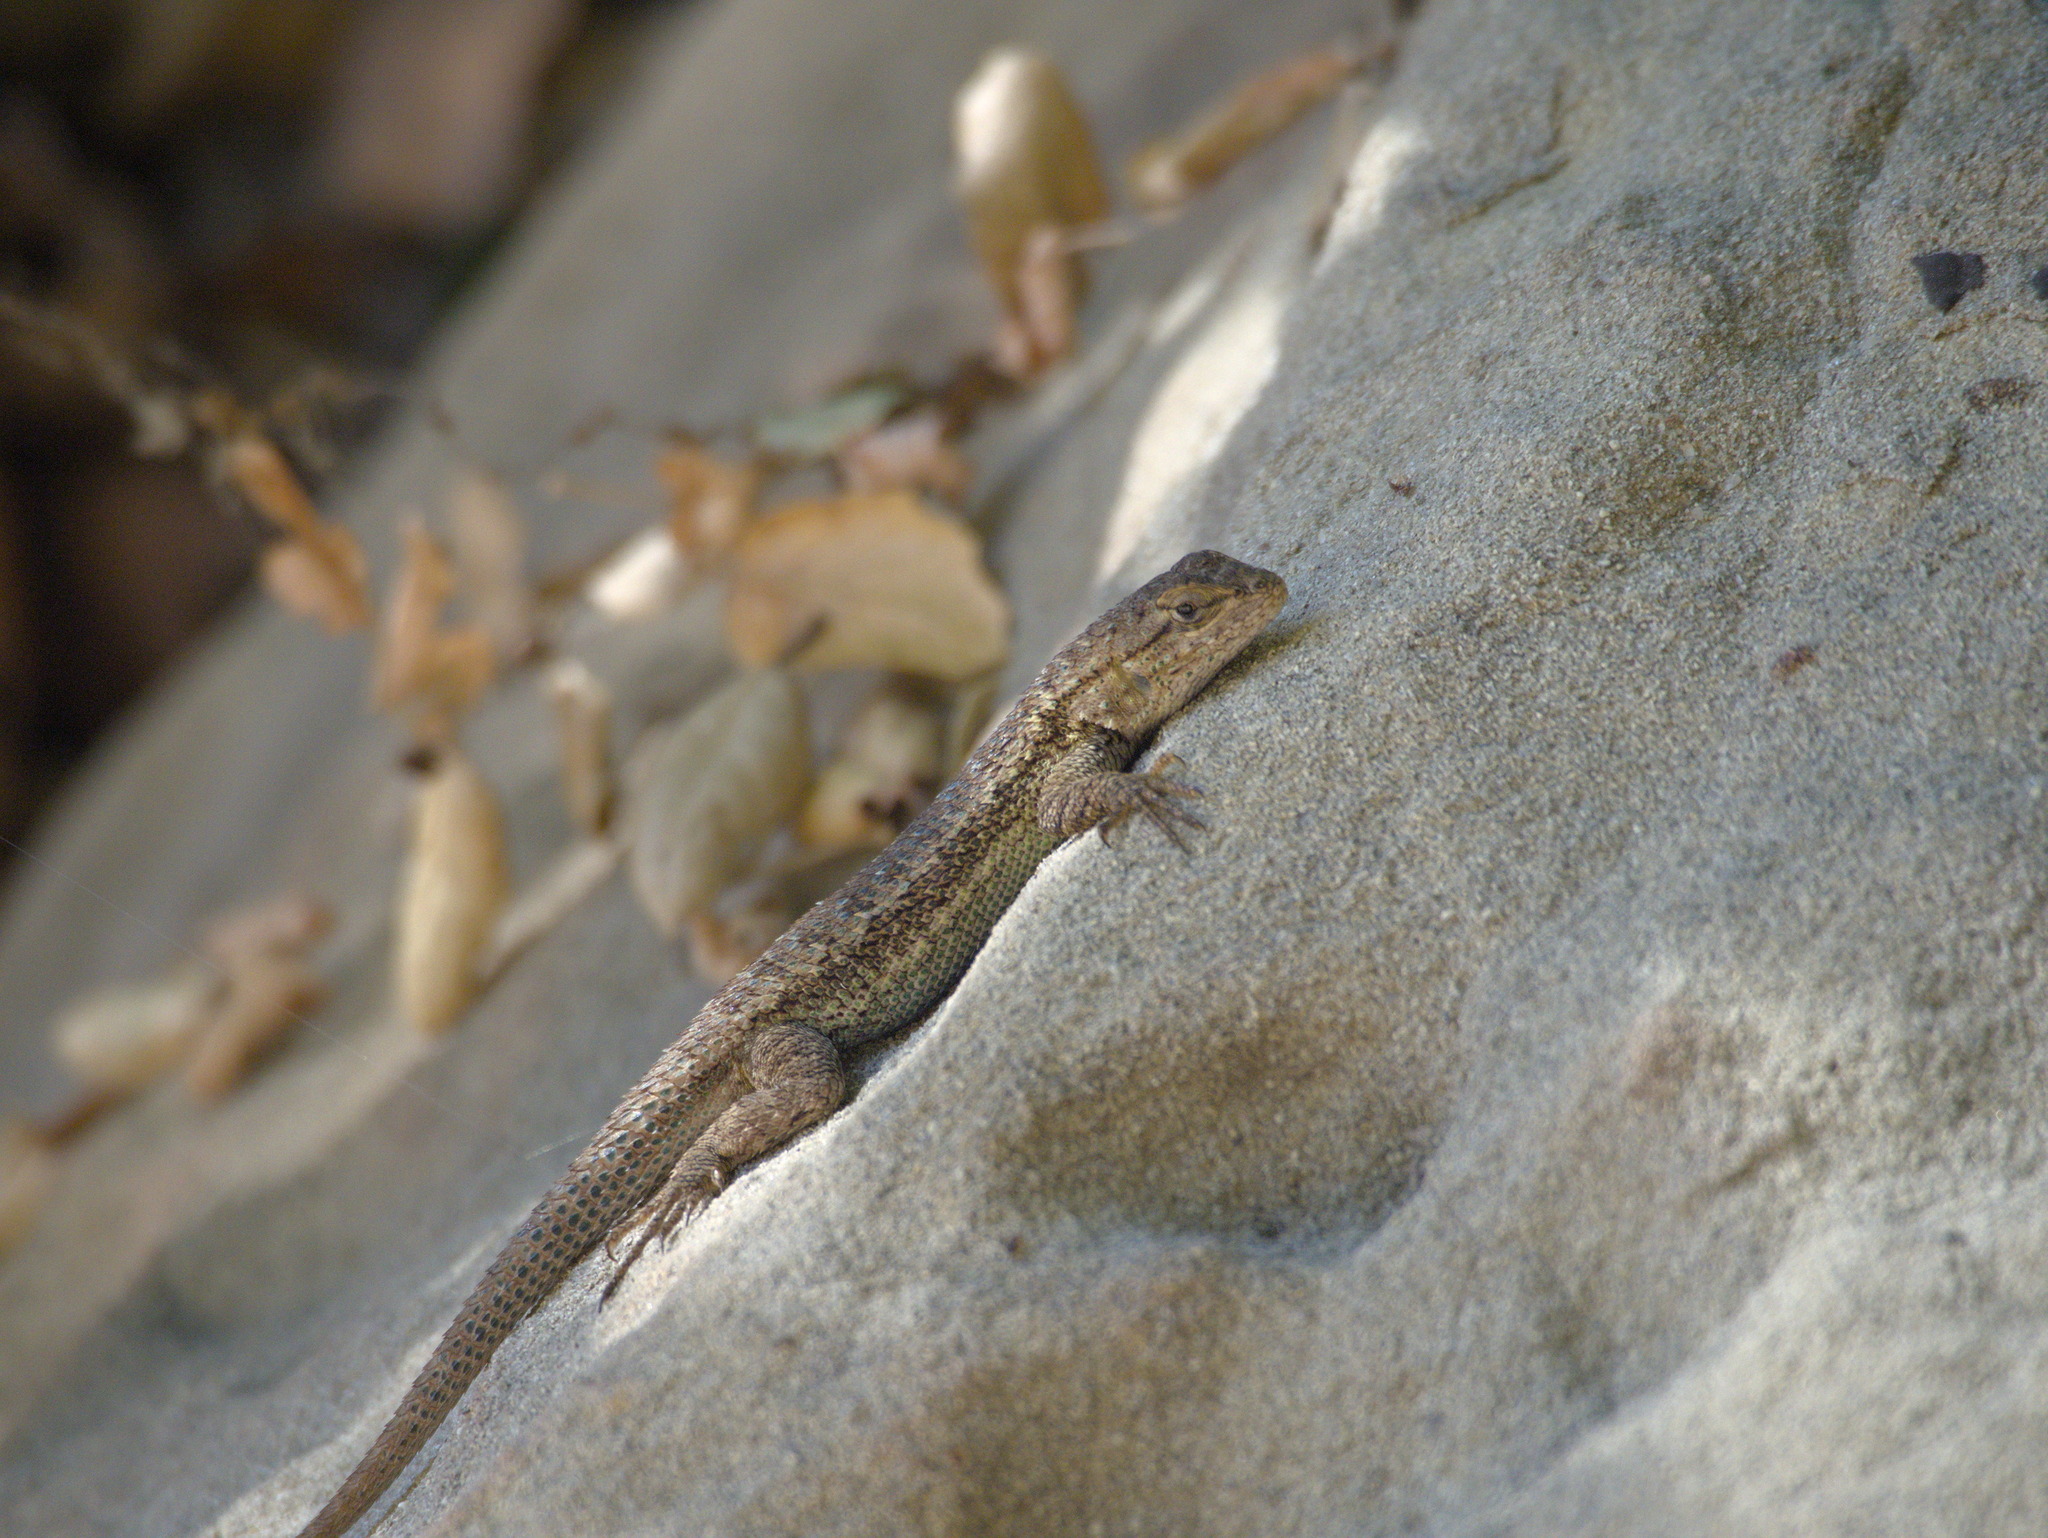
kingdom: Animalia
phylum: Chordata
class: Squamata
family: Phrynosomatidae
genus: Sceloporus
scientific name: Sceloporus occidentalis
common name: Western fence lizard
